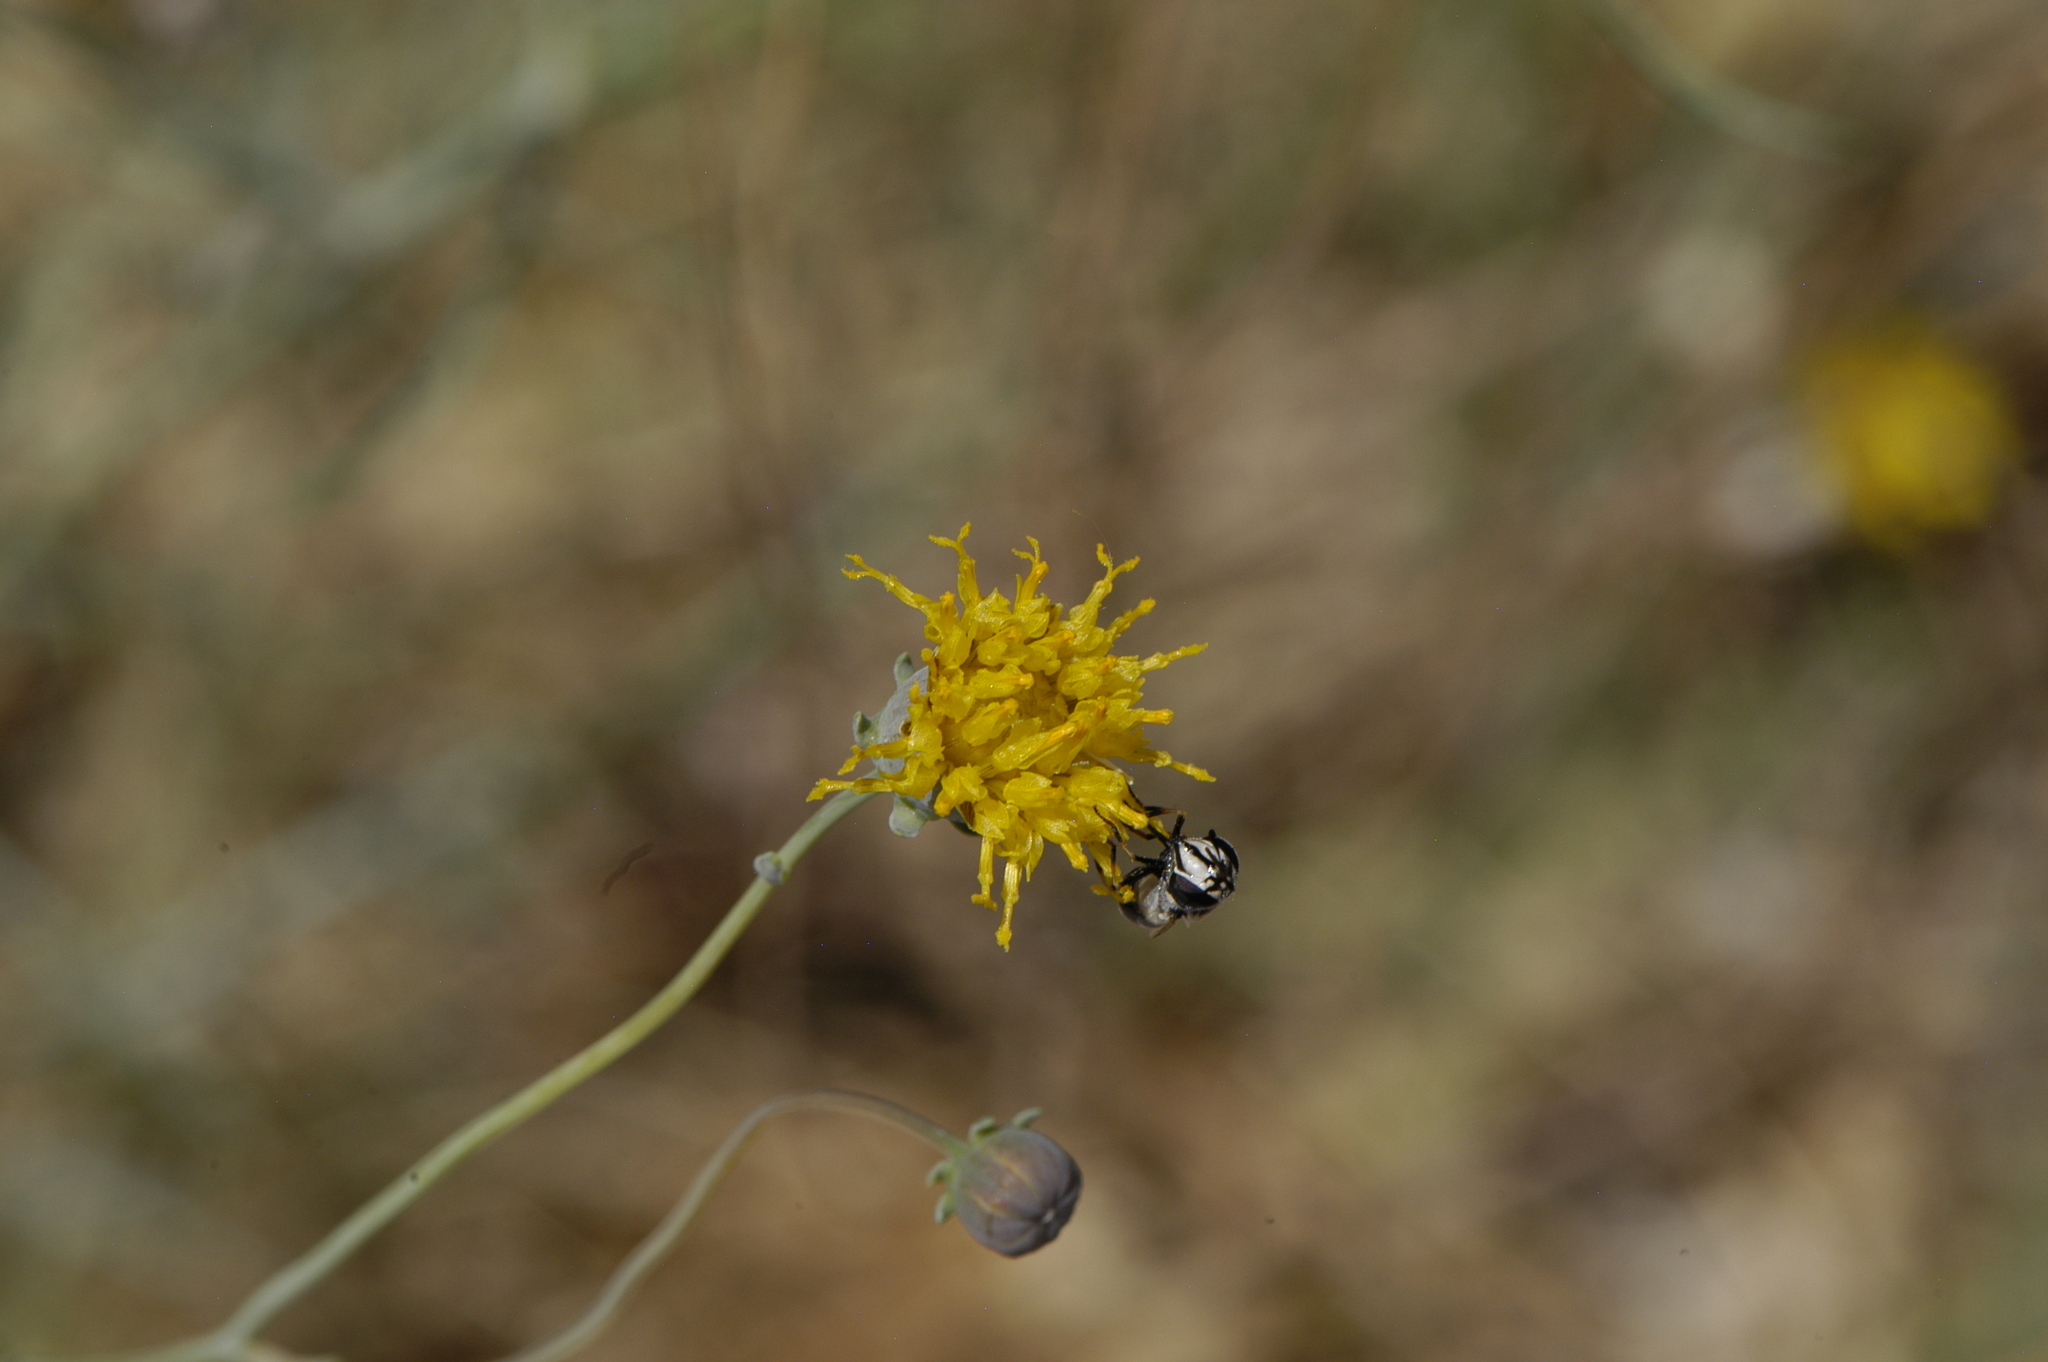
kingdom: Plantae
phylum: Tracheophyta
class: Magnoliopsida
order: Asterales
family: Asteraceae
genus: Thelesperma
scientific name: Thelesperma megapotamicum
